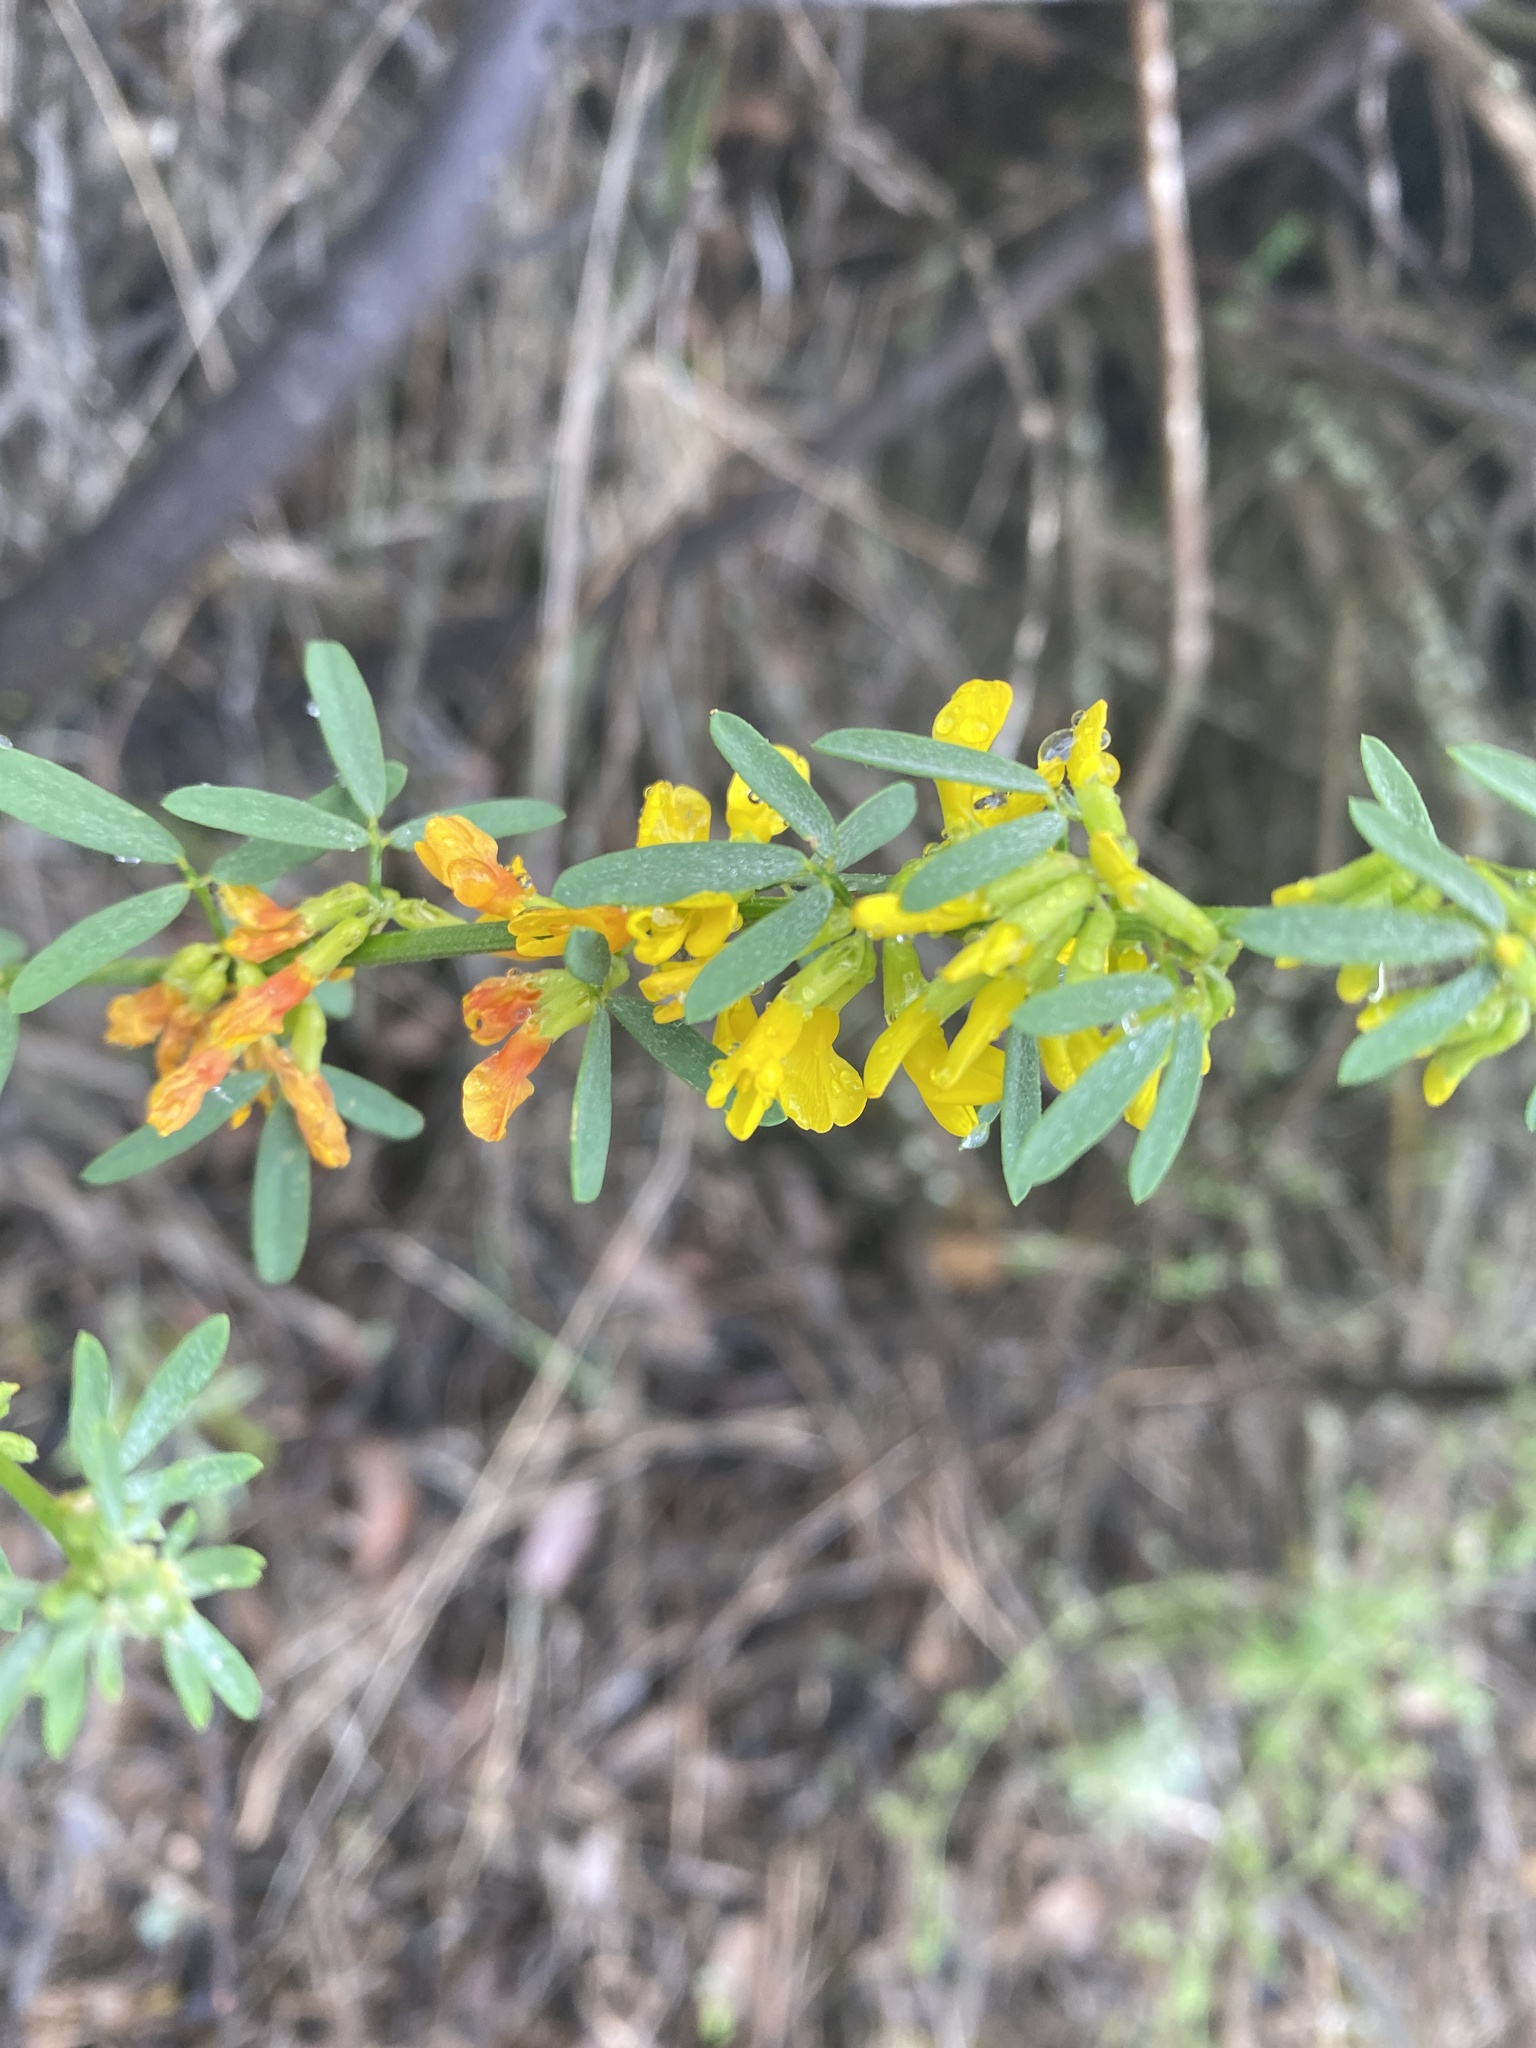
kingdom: Plantae
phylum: Tracheophyta
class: Magnoliopsida
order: Fabales
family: Fabaceae
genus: Acmispon
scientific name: Acmispon glaber
